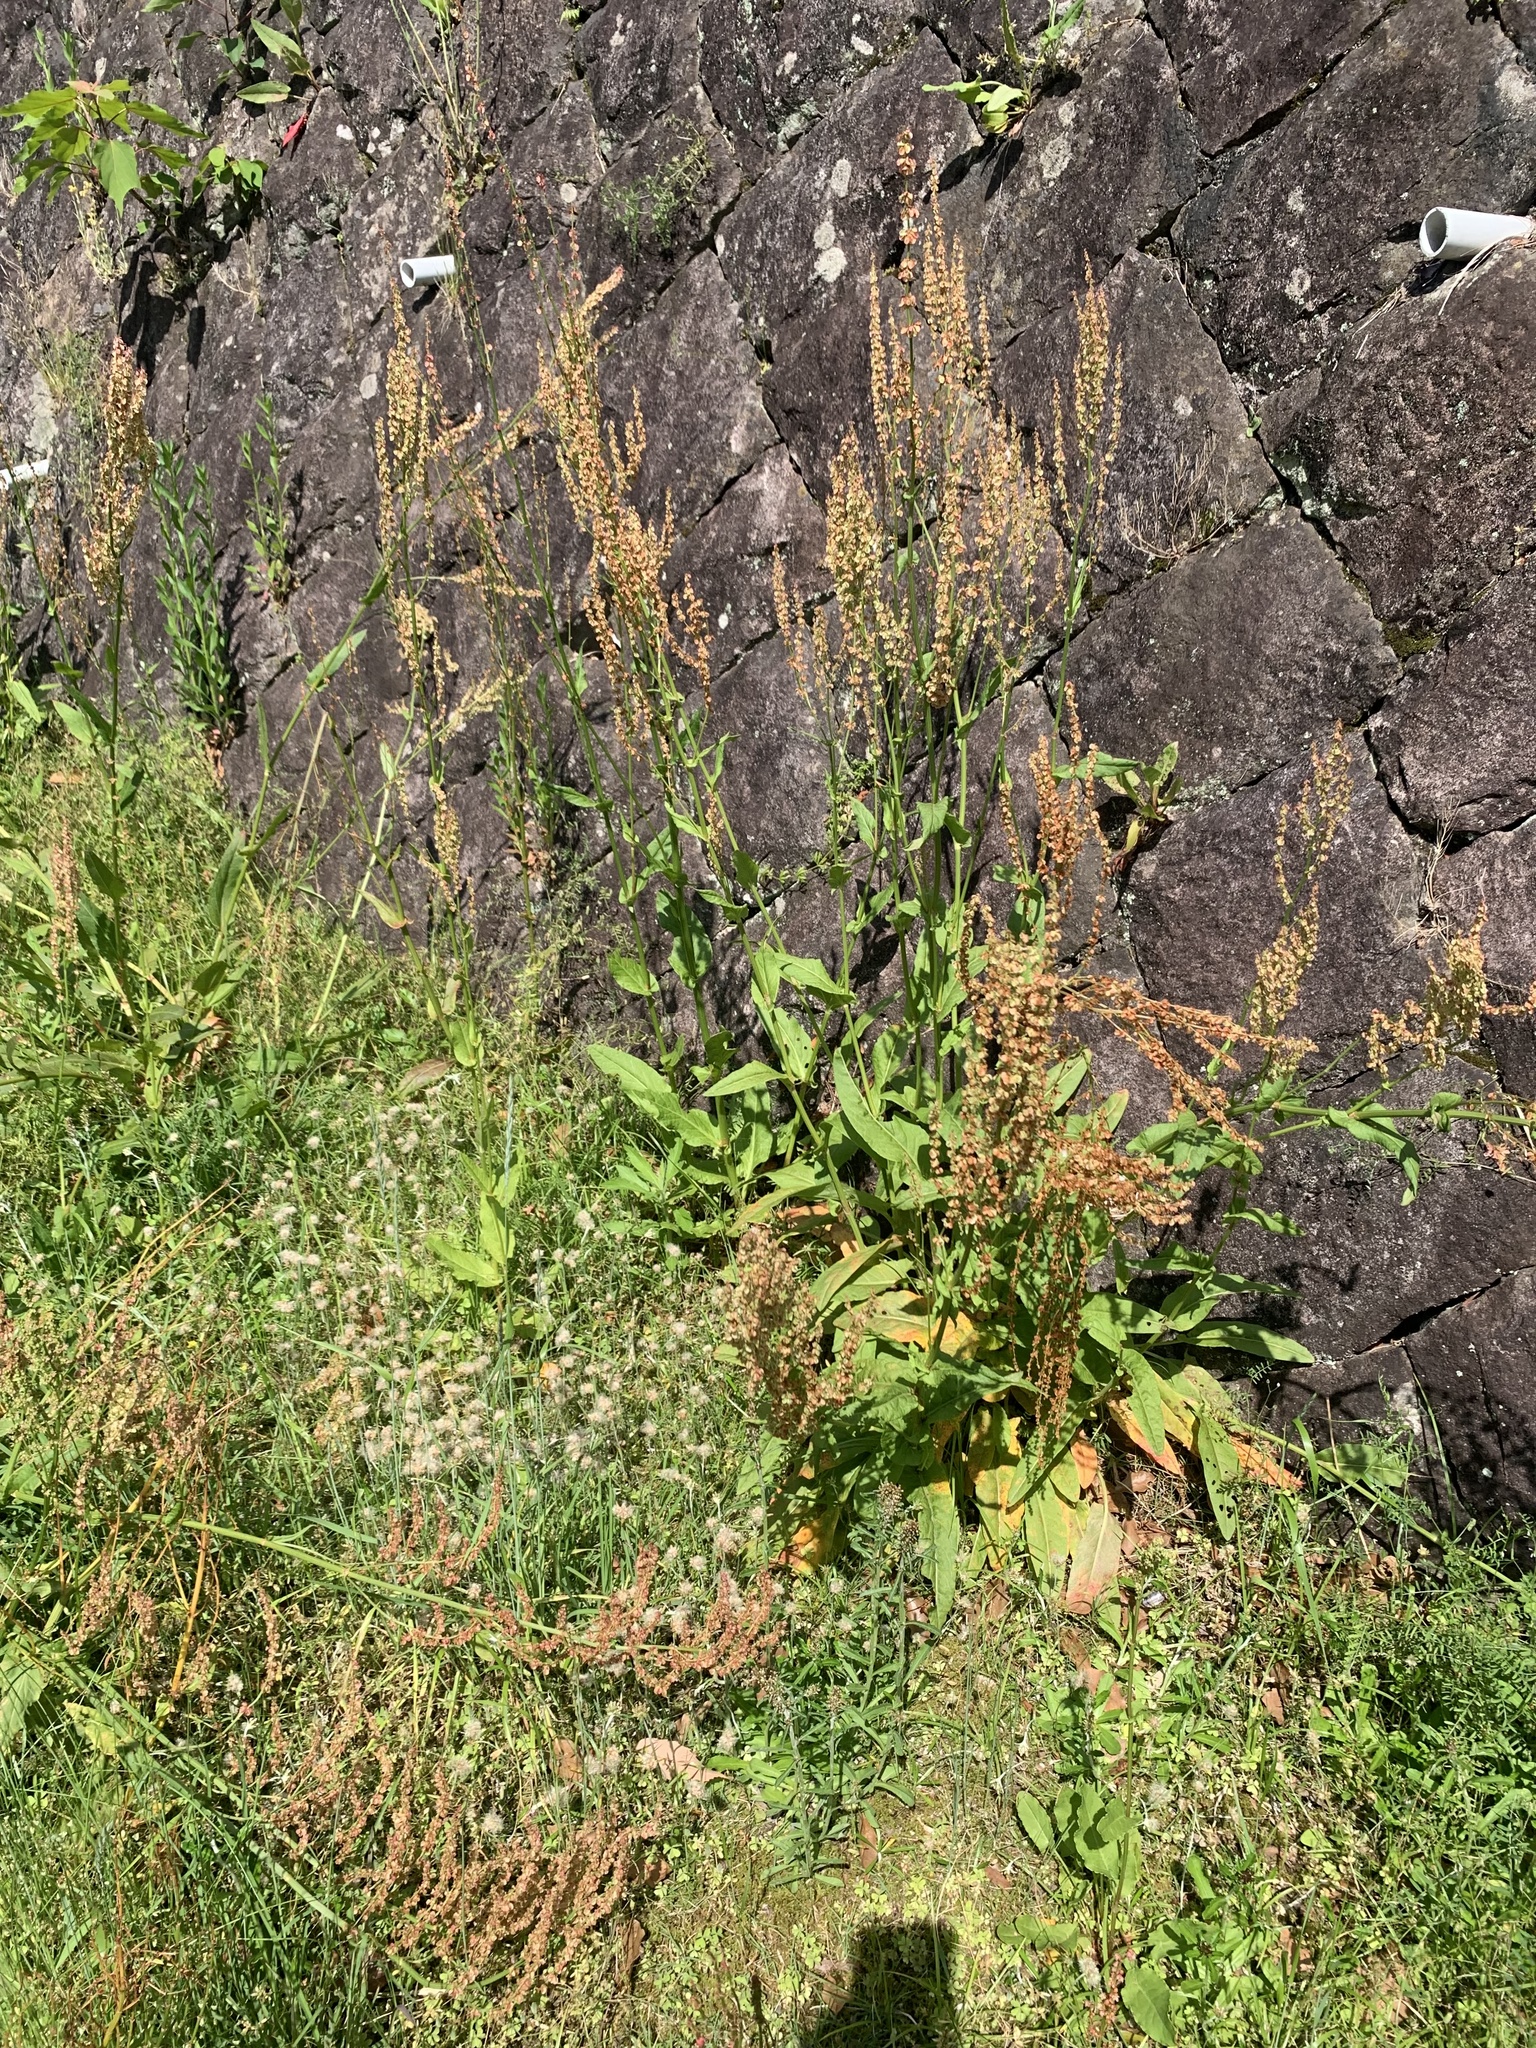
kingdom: Plantae
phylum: Tracheophyta
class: Magnoliopsida
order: Caryophyllales
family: Polygonaceae
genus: Rumex
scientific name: Rumex acetosa
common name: Garden sorrel
